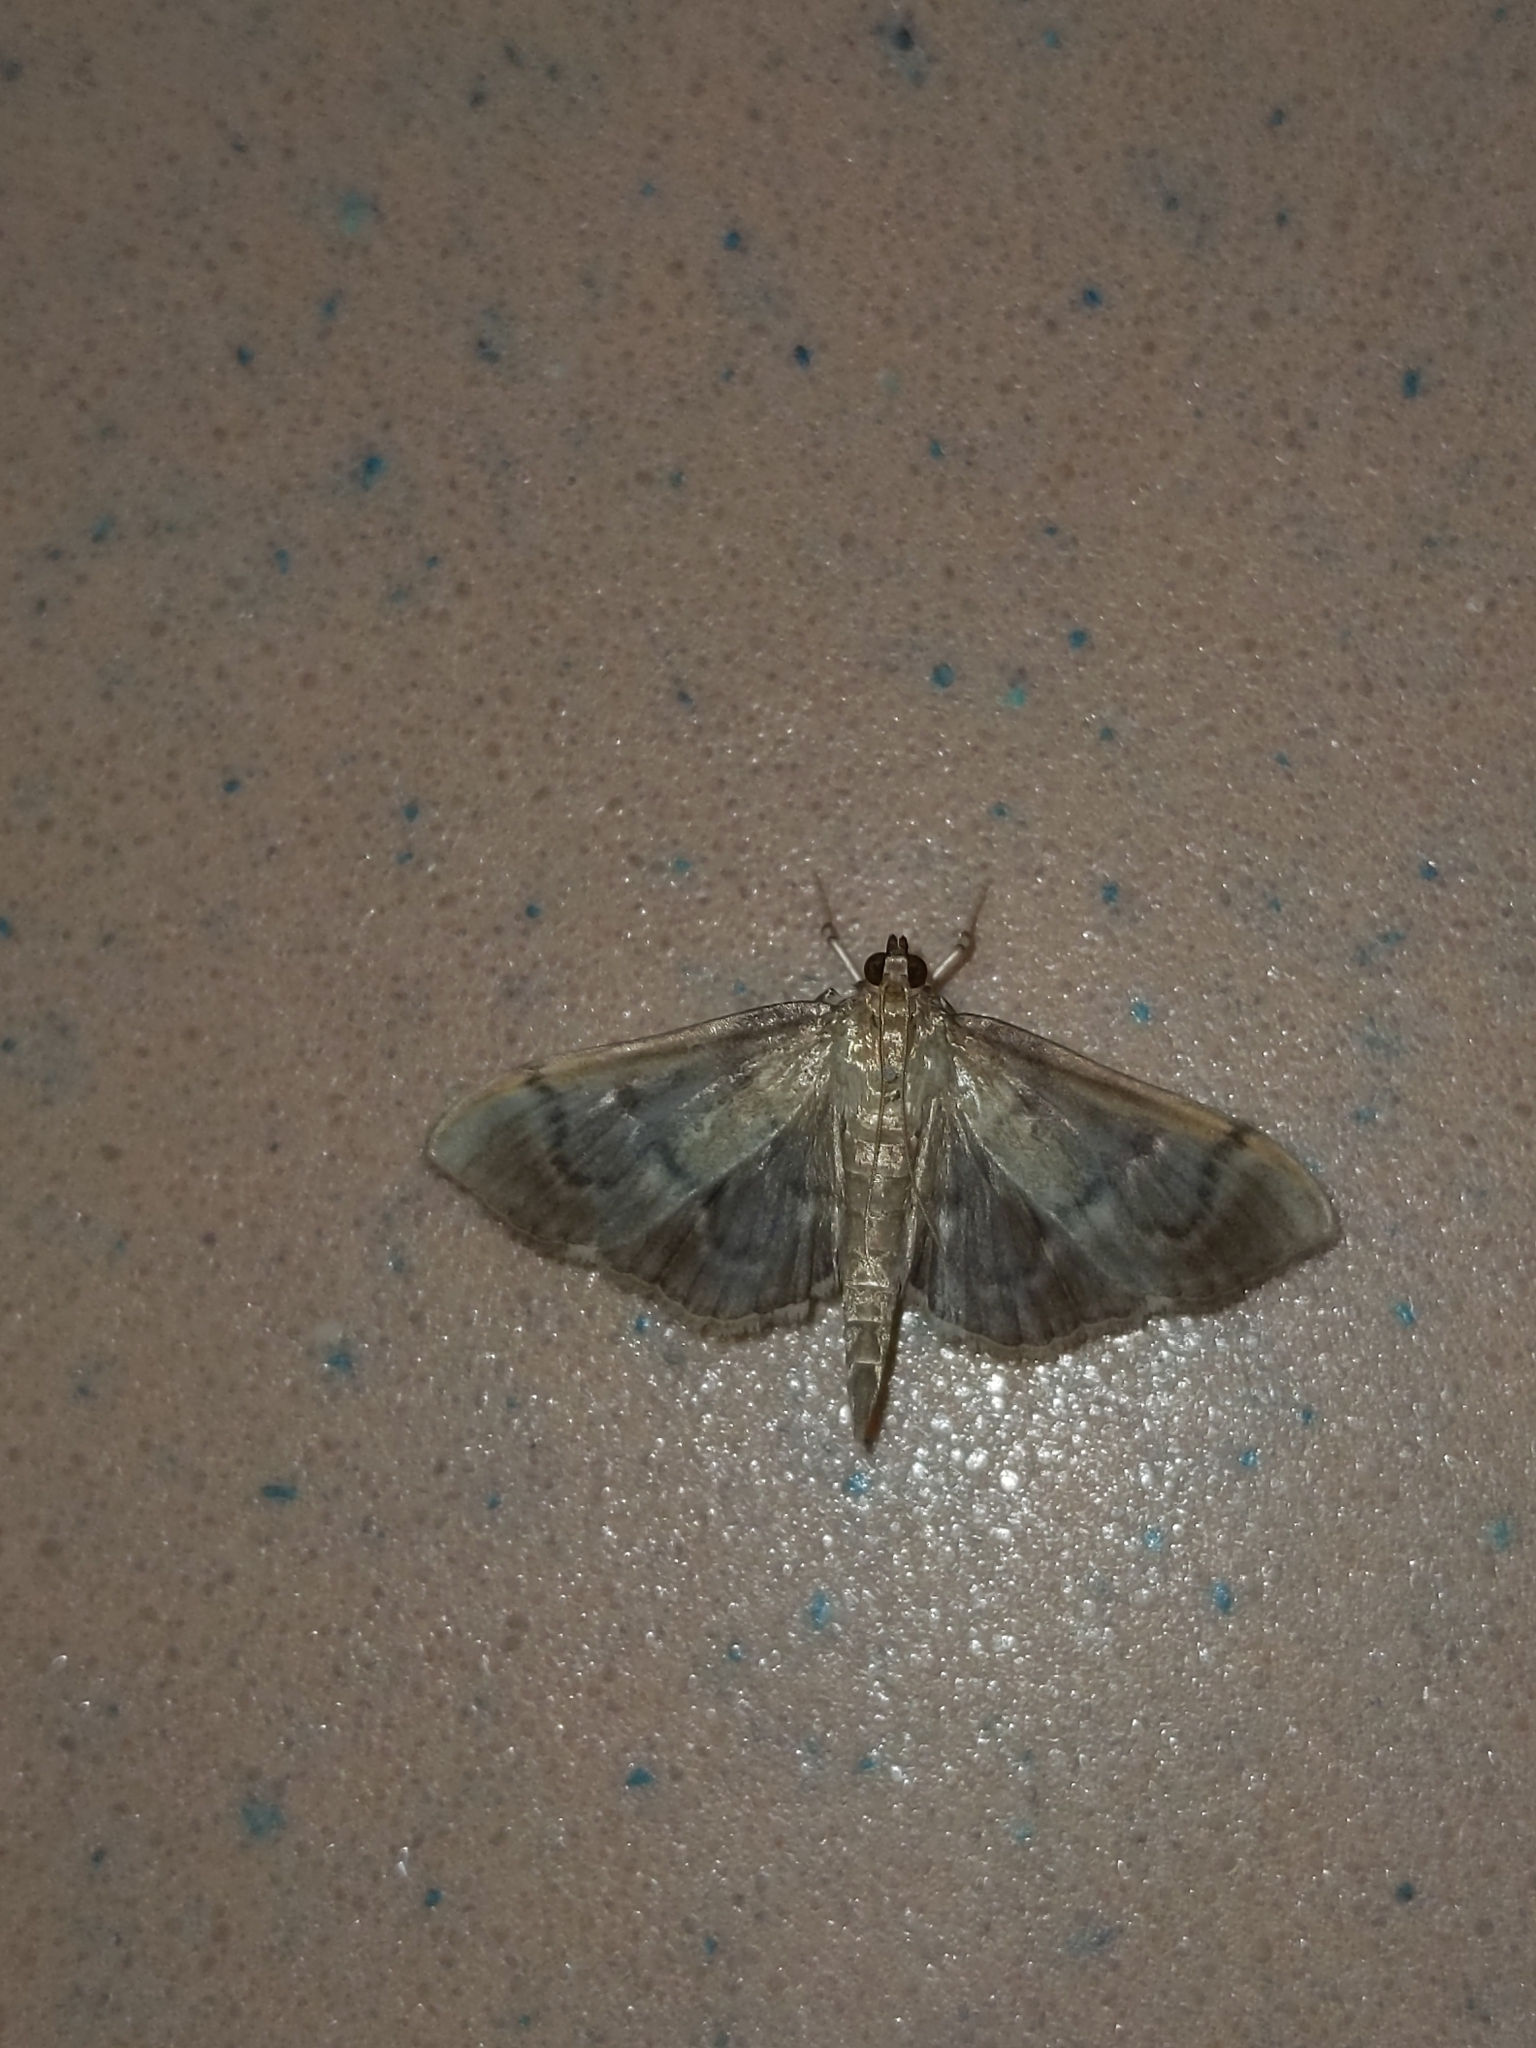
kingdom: Animalia
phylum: Arthropoda
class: Insecta
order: Lepidoptera
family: Crambidae
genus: Herpetogramma
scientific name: Herpetogramma aeglealis
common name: Serpentine webworm moth
